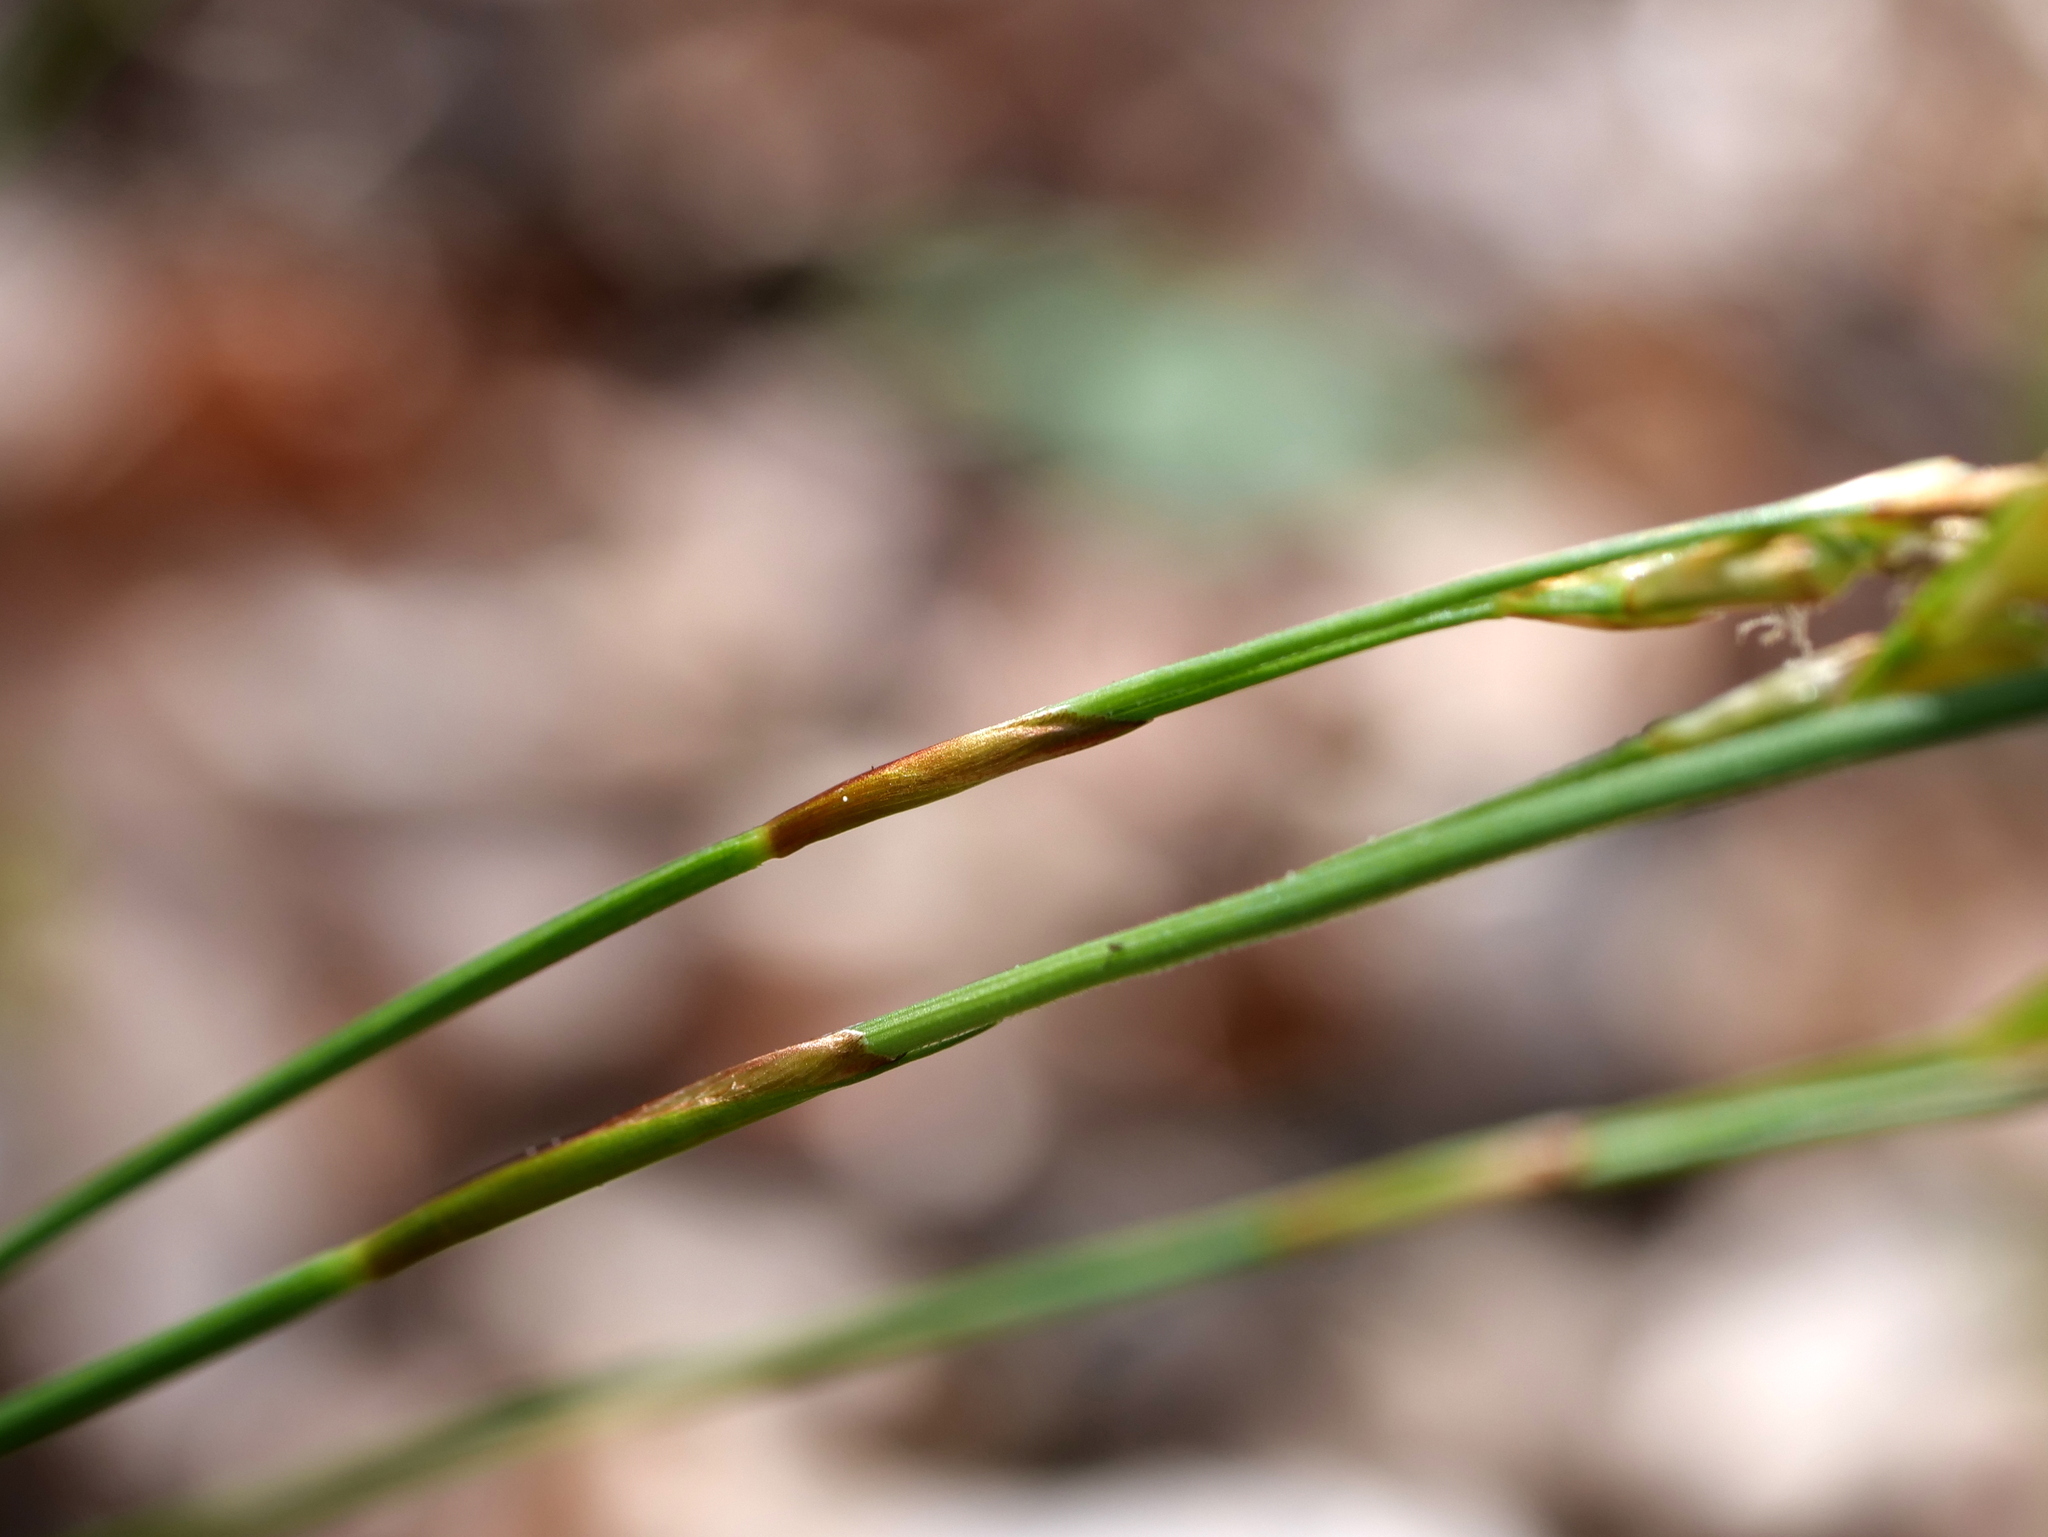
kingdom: Plantae
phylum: Tracheophyta
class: Liliopsida
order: Poales
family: Cyperaceae
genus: Carex
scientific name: Carex digitata
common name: Fingered sedge
